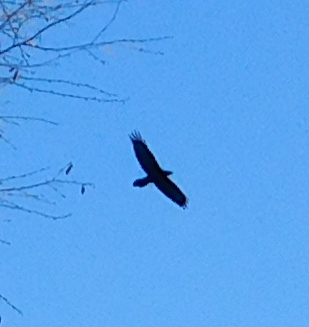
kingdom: Animalia
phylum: Chordata
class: Aves
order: Passeriformes
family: Corvidae
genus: Corvus
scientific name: Corvus corax
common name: Common raven
